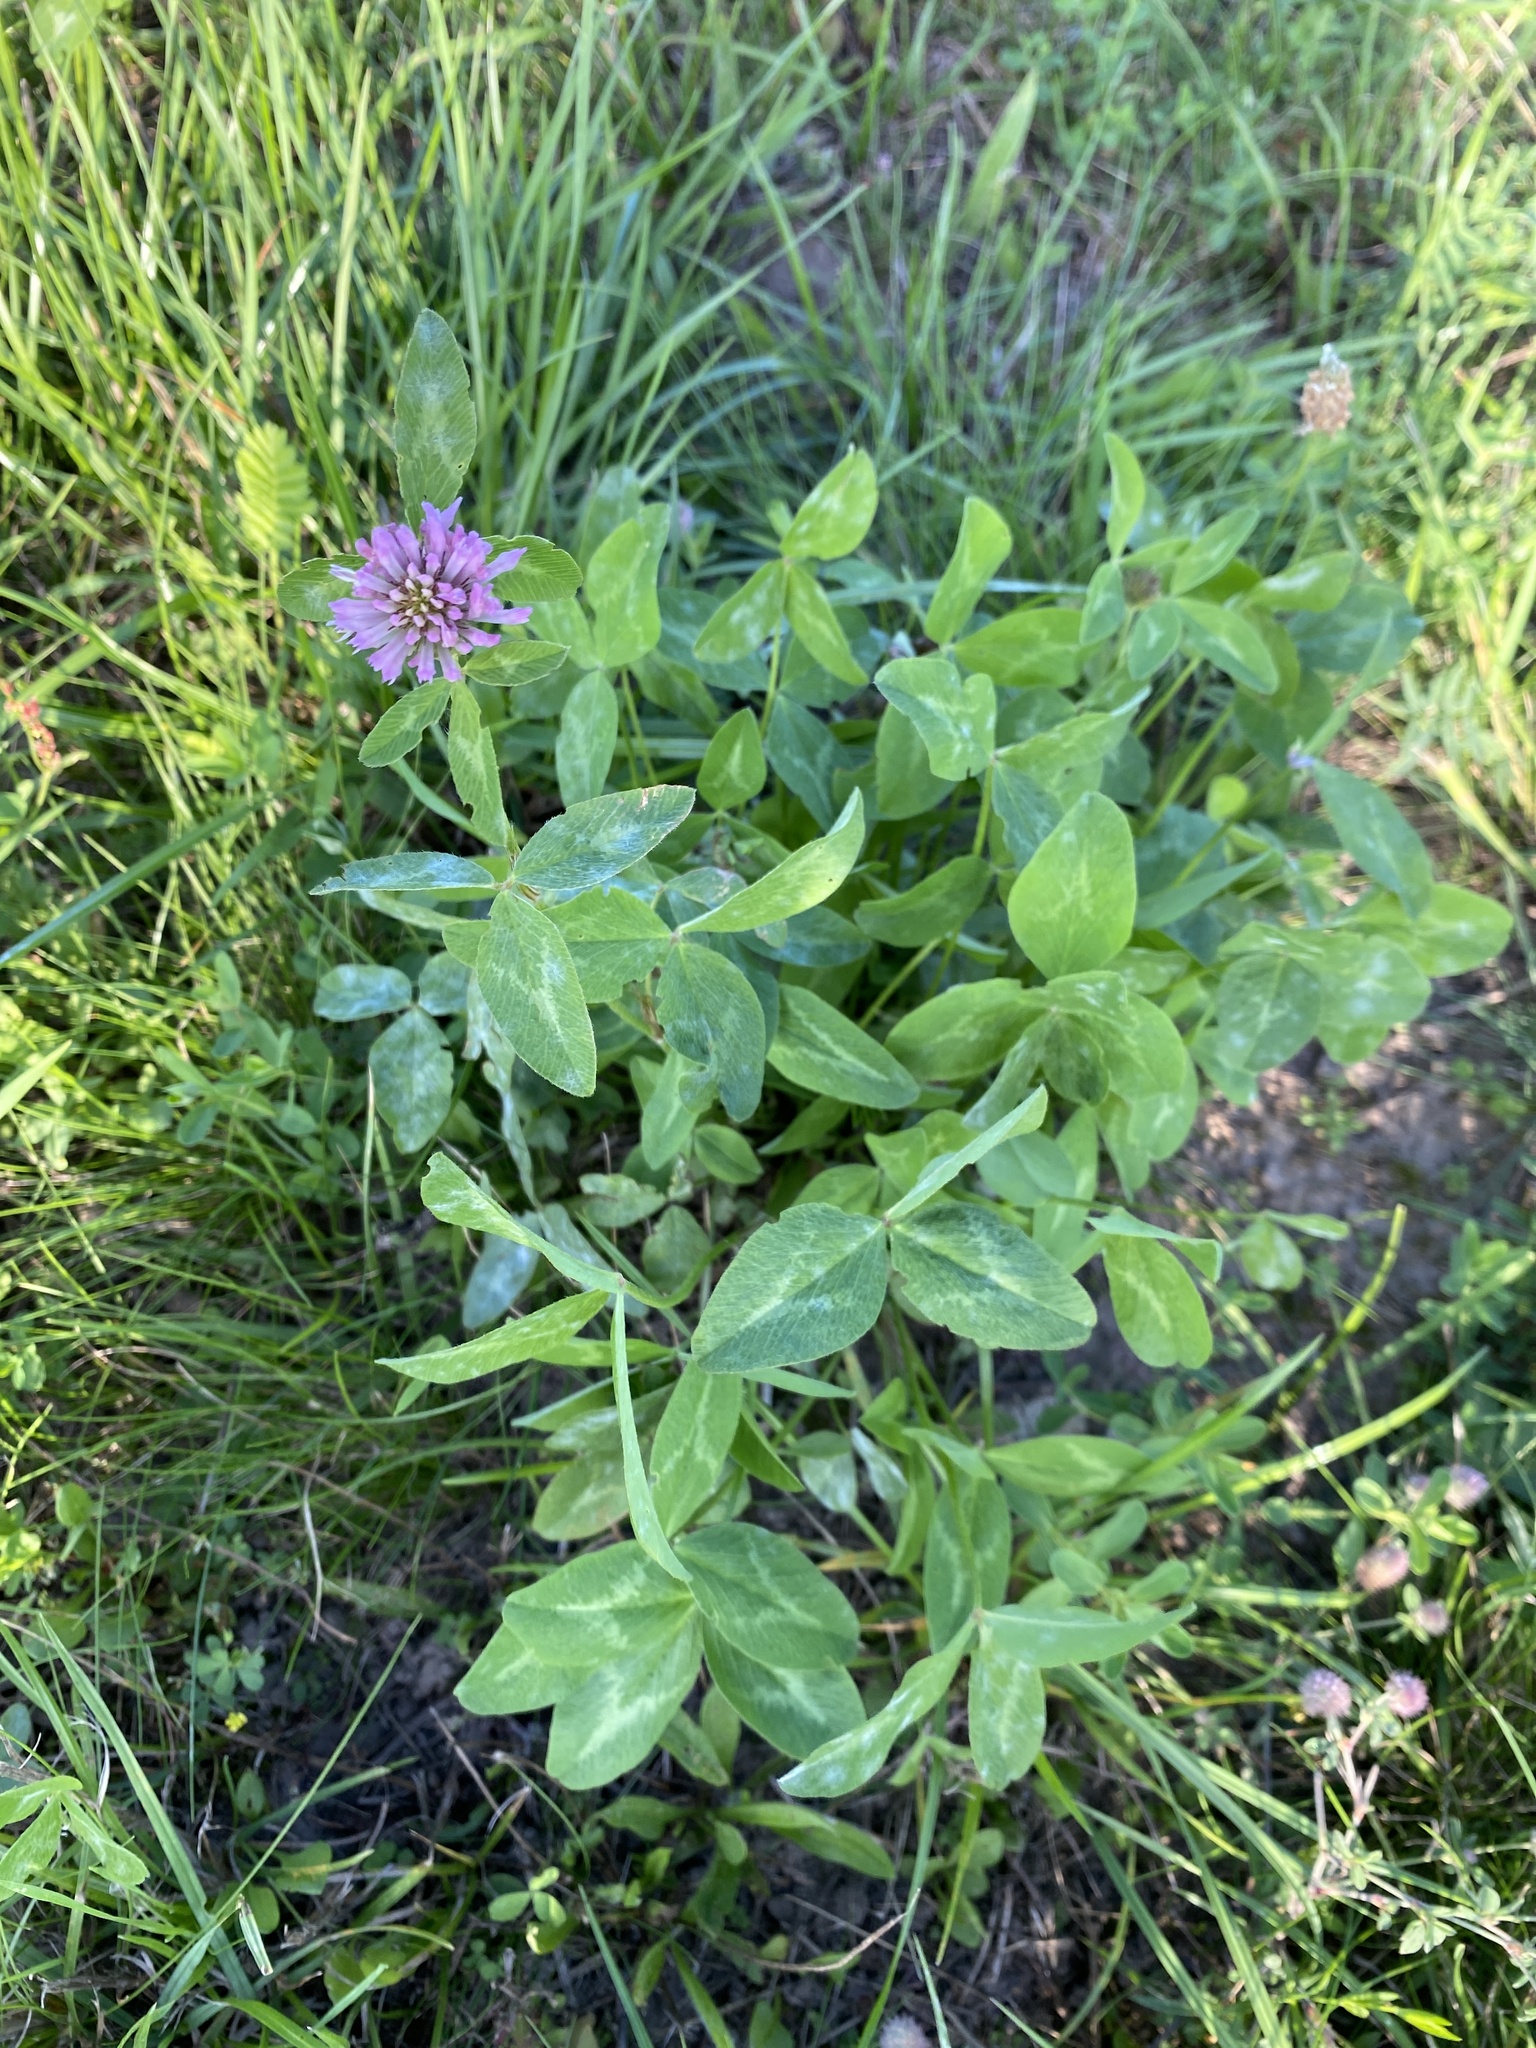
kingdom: Plantae
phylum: Tracheophyta
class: Magnoliopsida
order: Fabales
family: Fabaceae
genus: Trifolium
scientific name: Trifolium pratense
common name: Red clover
